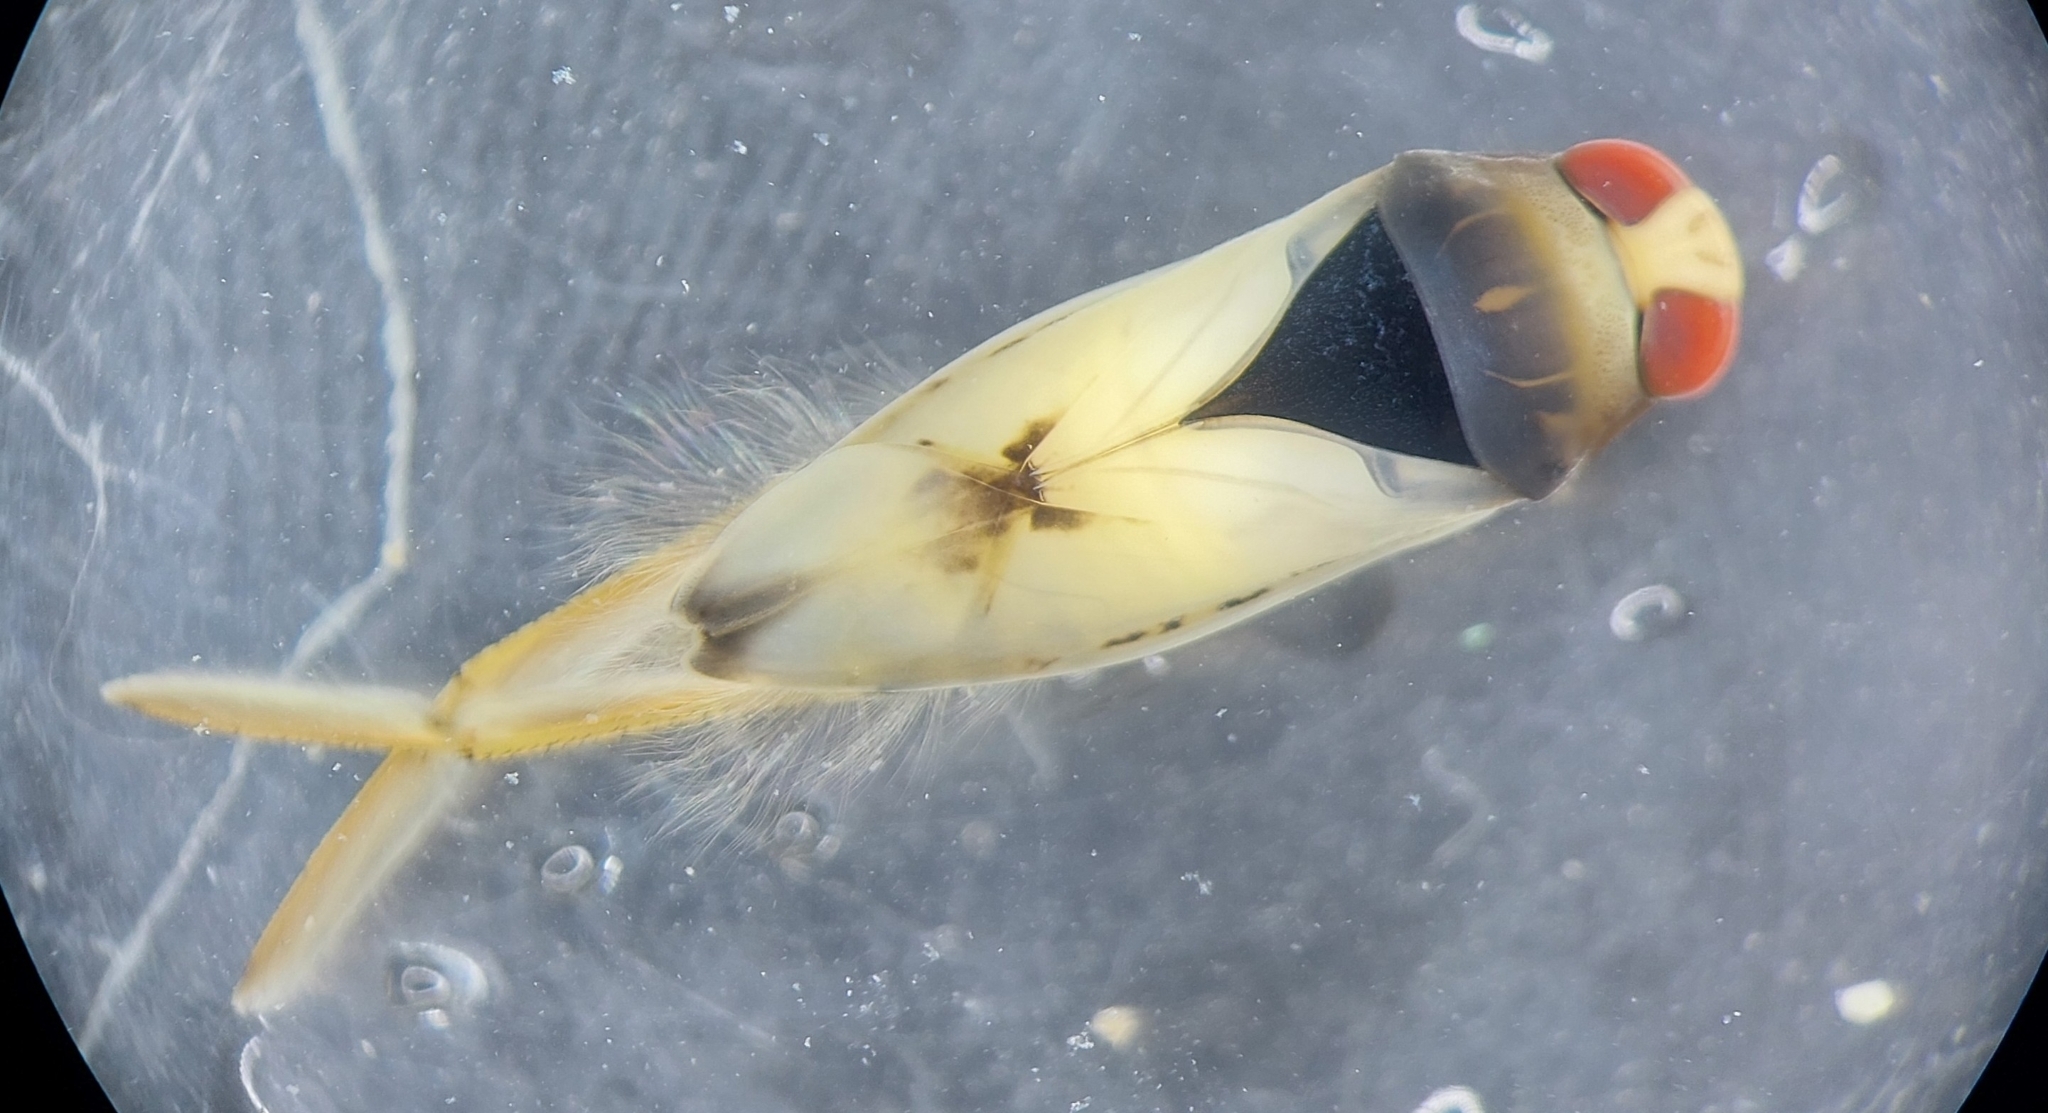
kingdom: Animalia
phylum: Arthropoda
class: Insecta
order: Hemiptera
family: Notonectidae
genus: Notonecta
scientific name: Notonecta glauca
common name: Common water-boatman
